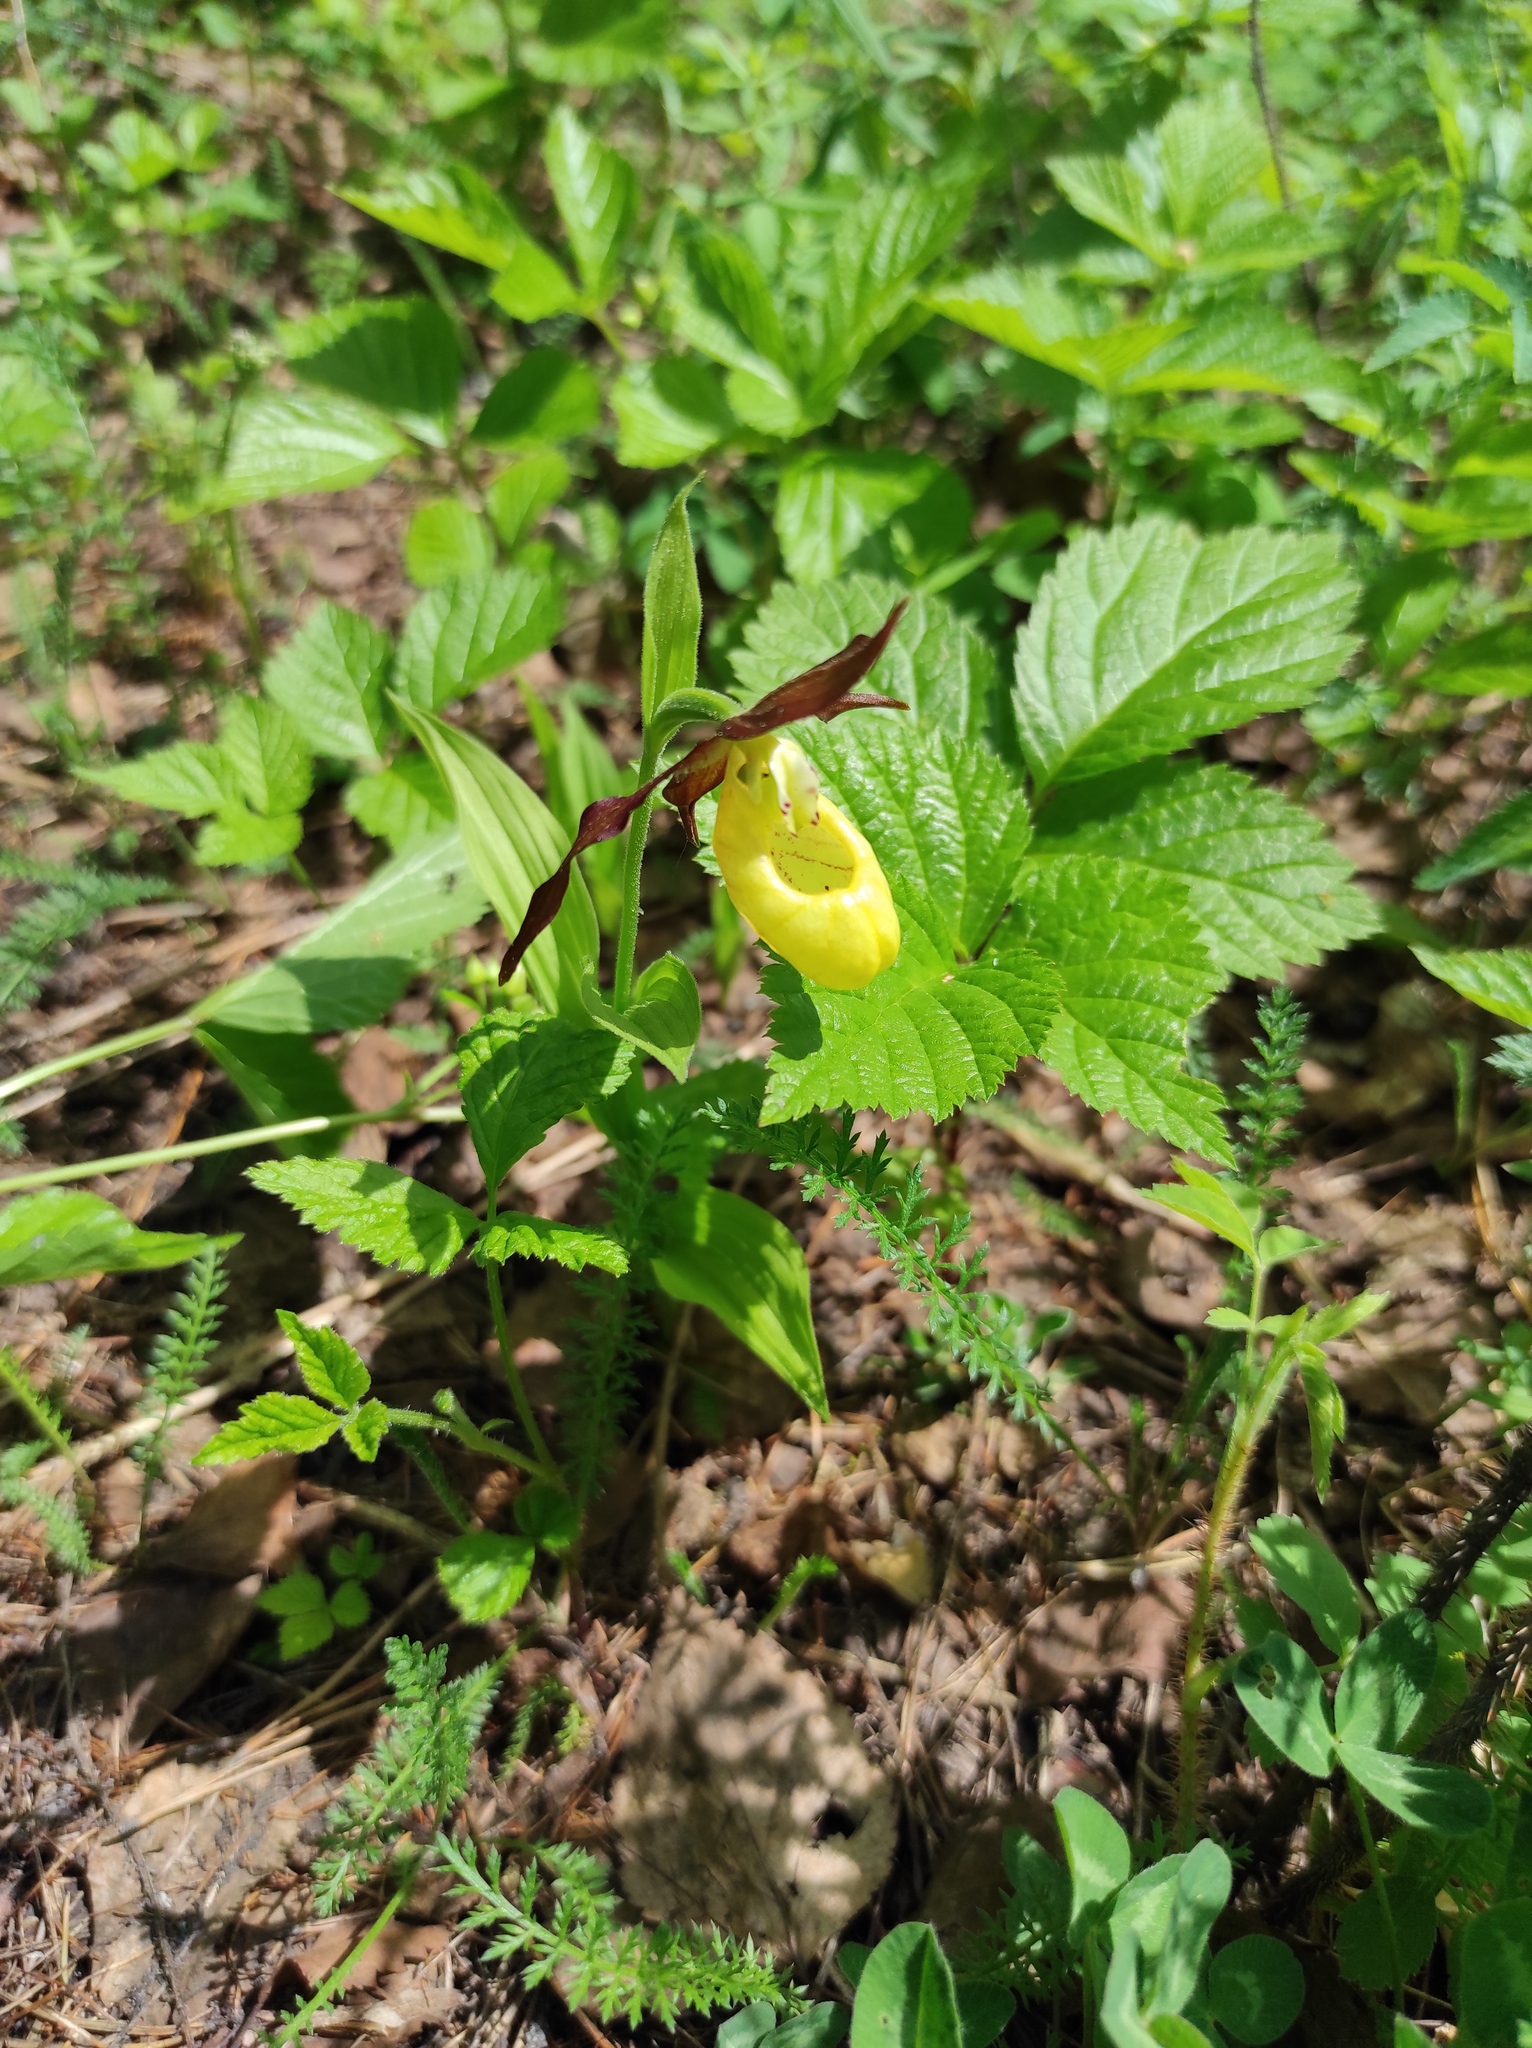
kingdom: Plantae
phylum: Tracheophyta
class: Magnoliopsida
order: Rosales
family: Rosaceae
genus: Rubus
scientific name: Rubus saxatilis
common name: Stone bramble
